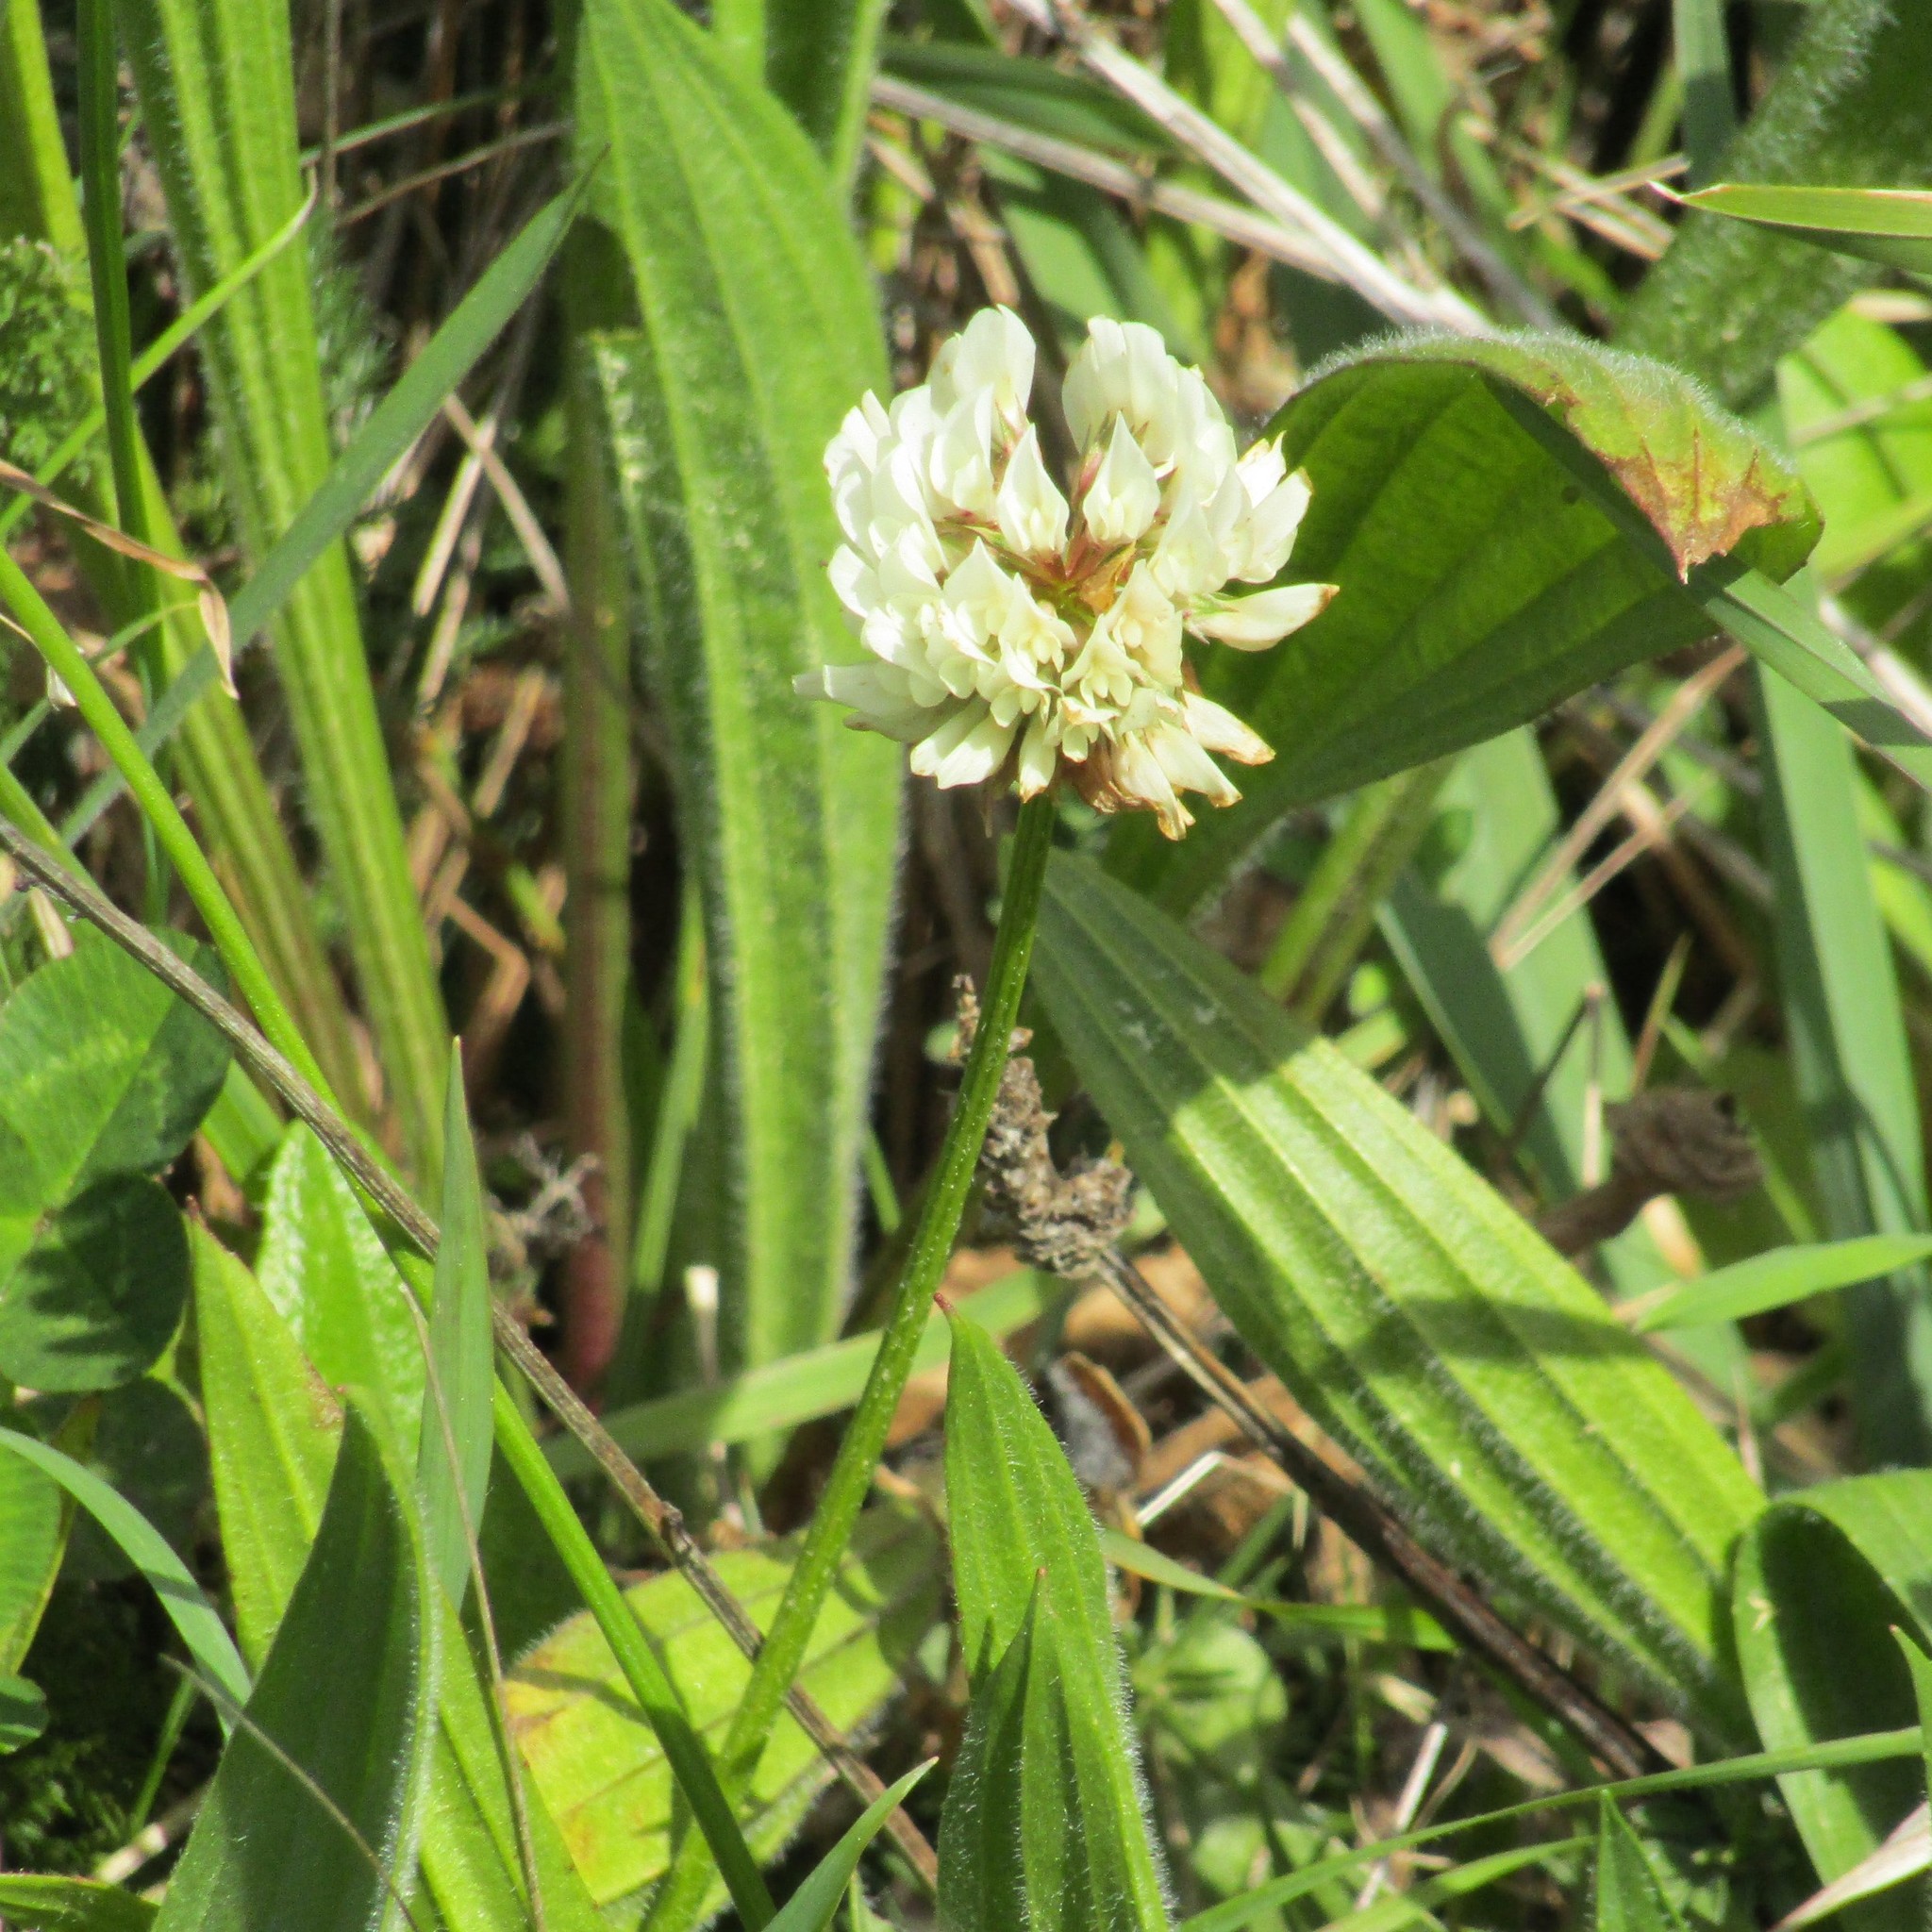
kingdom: Plantae
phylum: Tracheophyta
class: Magnoliopsida
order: Fabales
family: Fabaceae
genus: Trifolium
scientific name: Trifolium repens
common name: White clover
